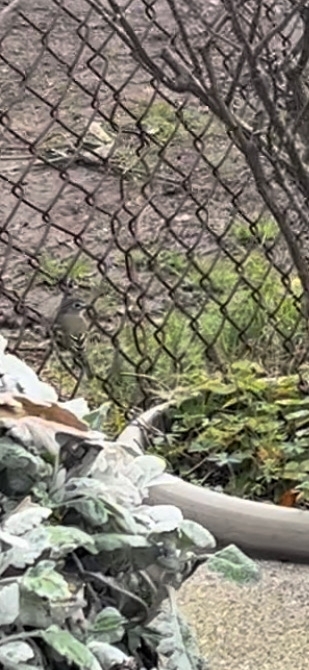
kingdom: Animalia
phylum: Chordata
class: Aves
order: Passeriformes
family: Vireonidae
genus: Vireo
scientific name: Vireo solitarius
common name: Blue-headed vireo
